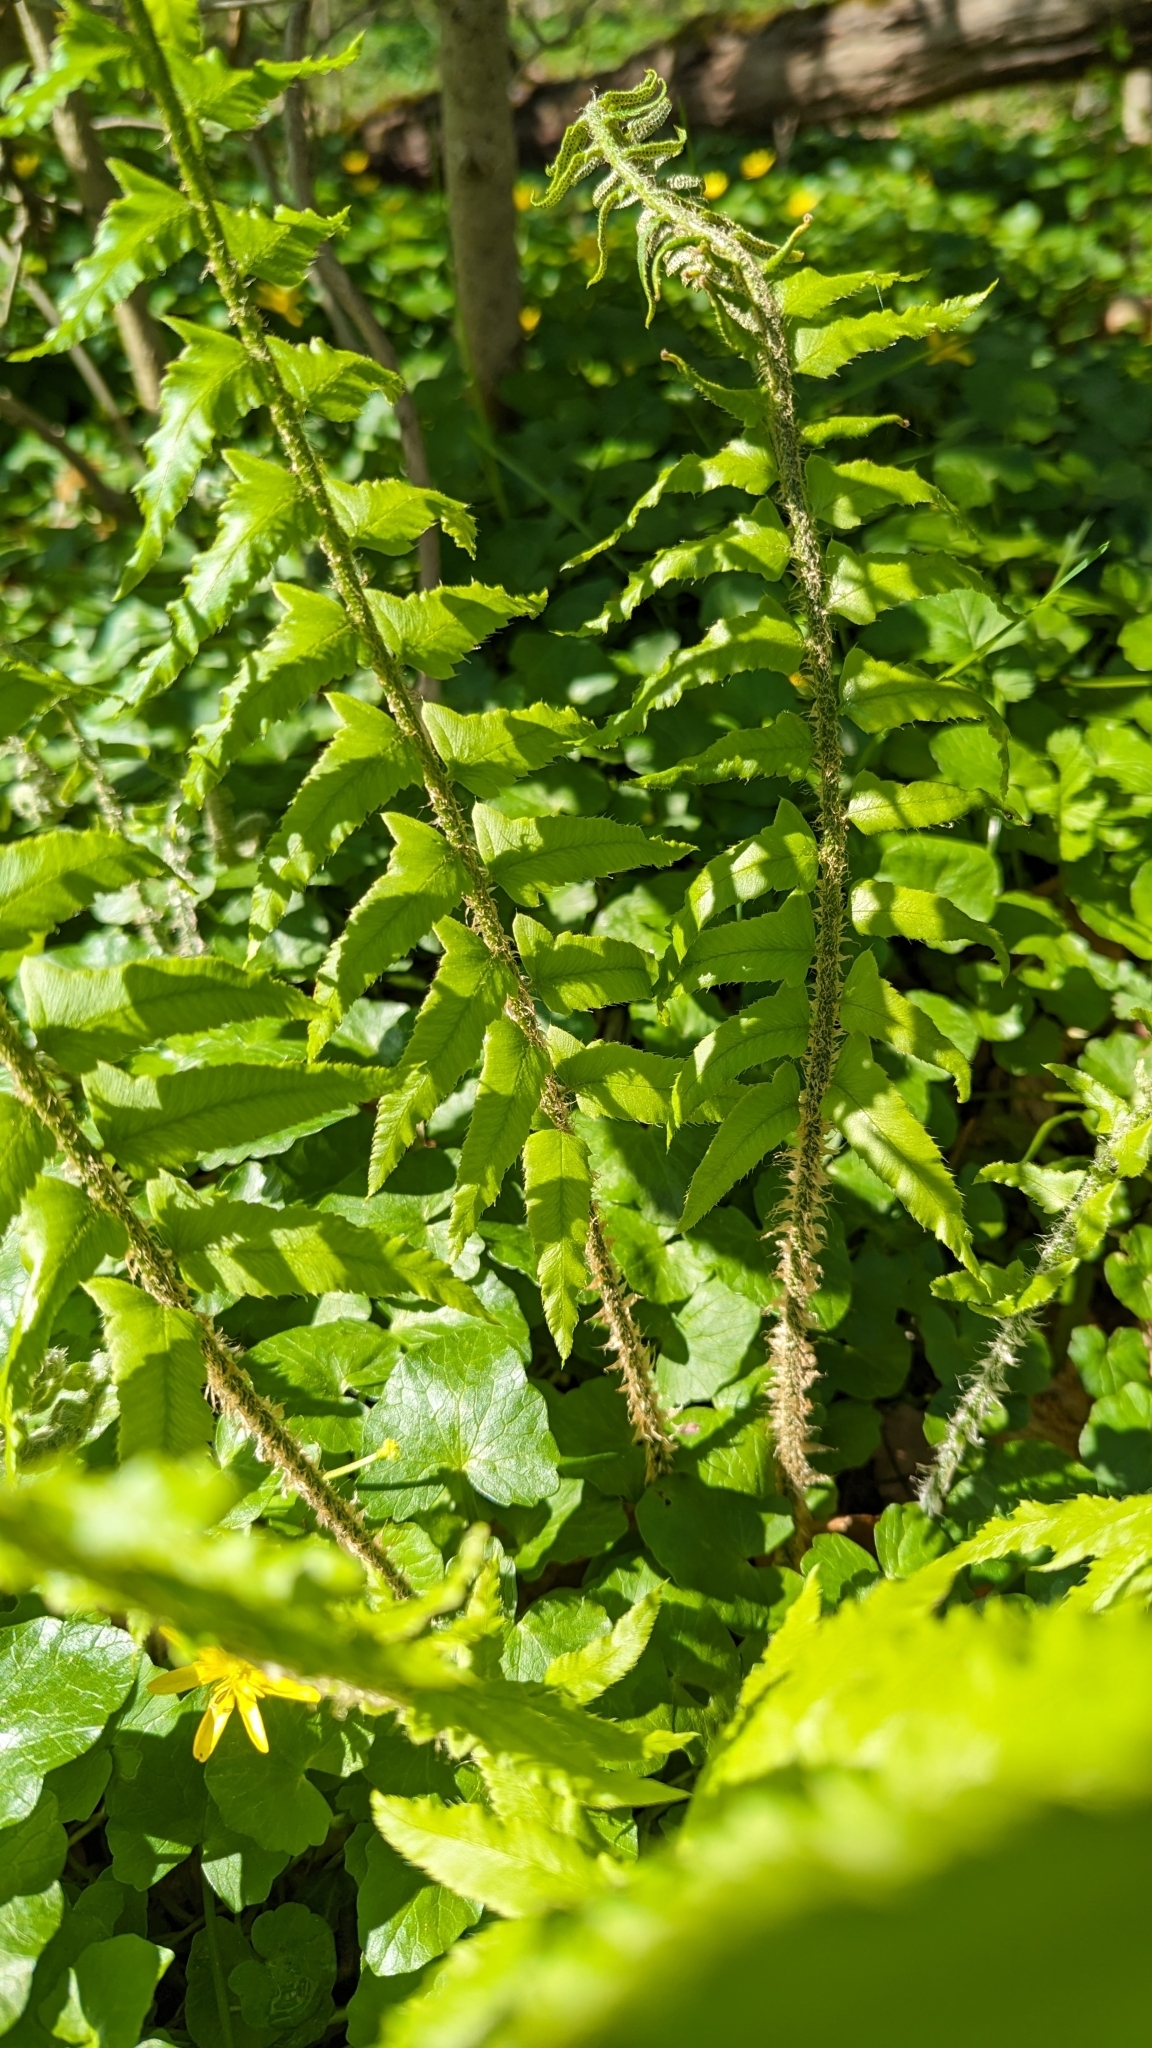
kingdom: Plantae
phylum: Tracheophyta
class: Polypodiopsida
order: Polypodiales
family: Dryopteridaceae
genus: Polystichum
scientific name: Polystichum acrostichoides
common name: Christmas fern
